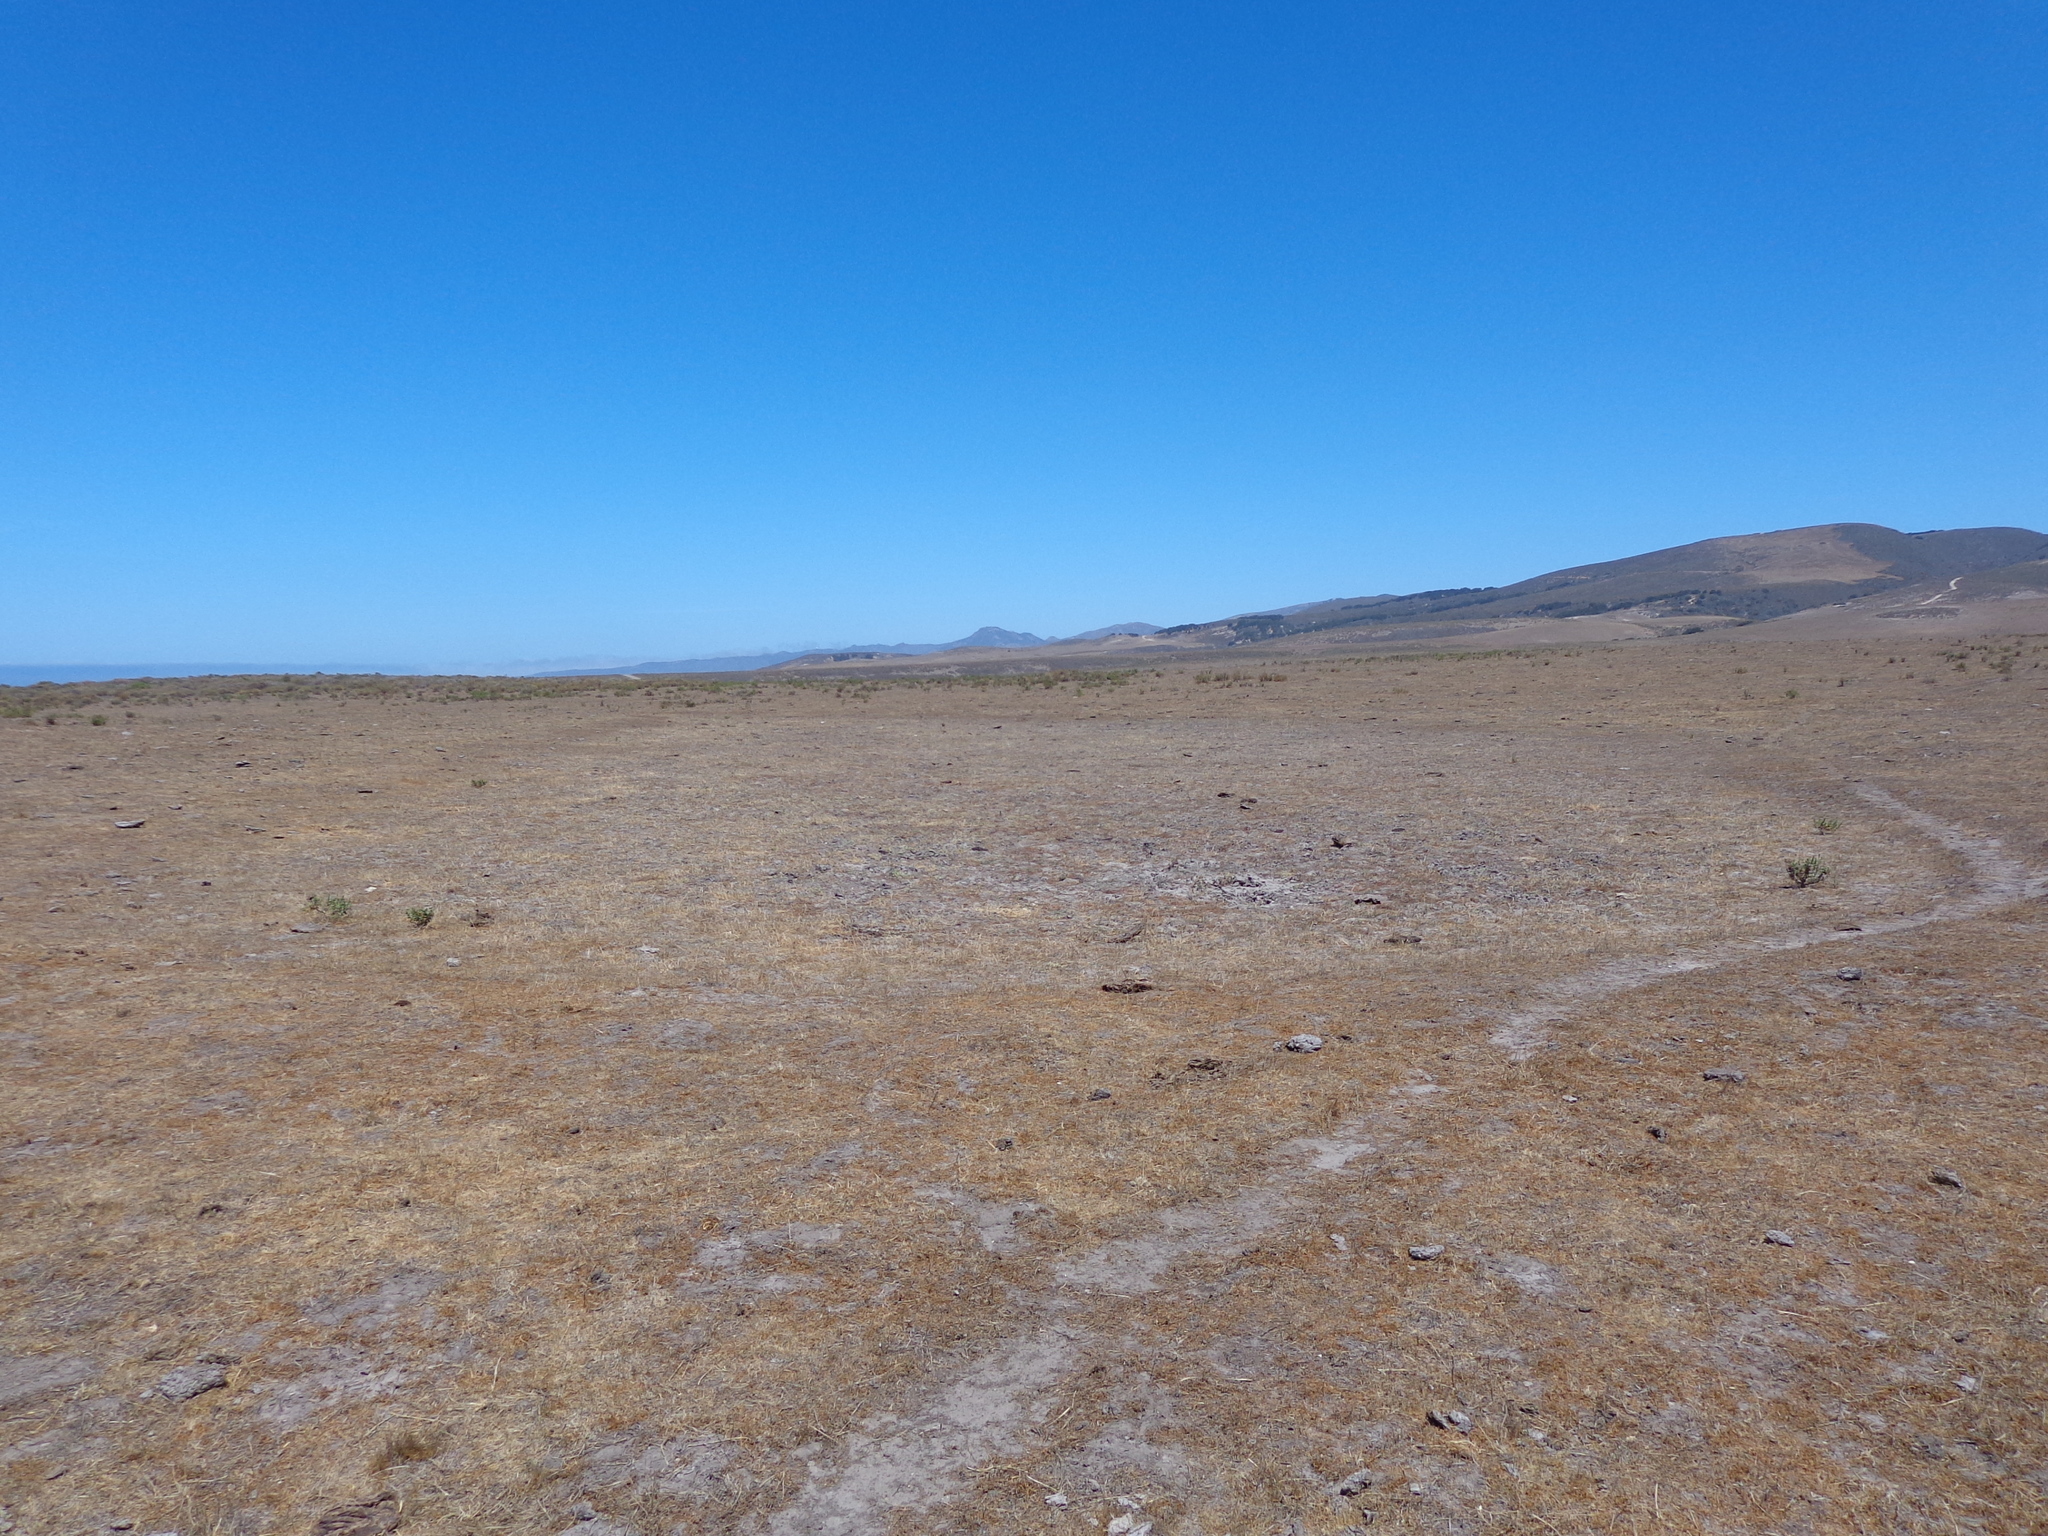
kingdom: Plantae
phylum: Tracheophyta
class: Magnoliopsida
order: Apiales
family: Apiaceae
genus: Eryngium
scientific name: Eryngium vaseyi
